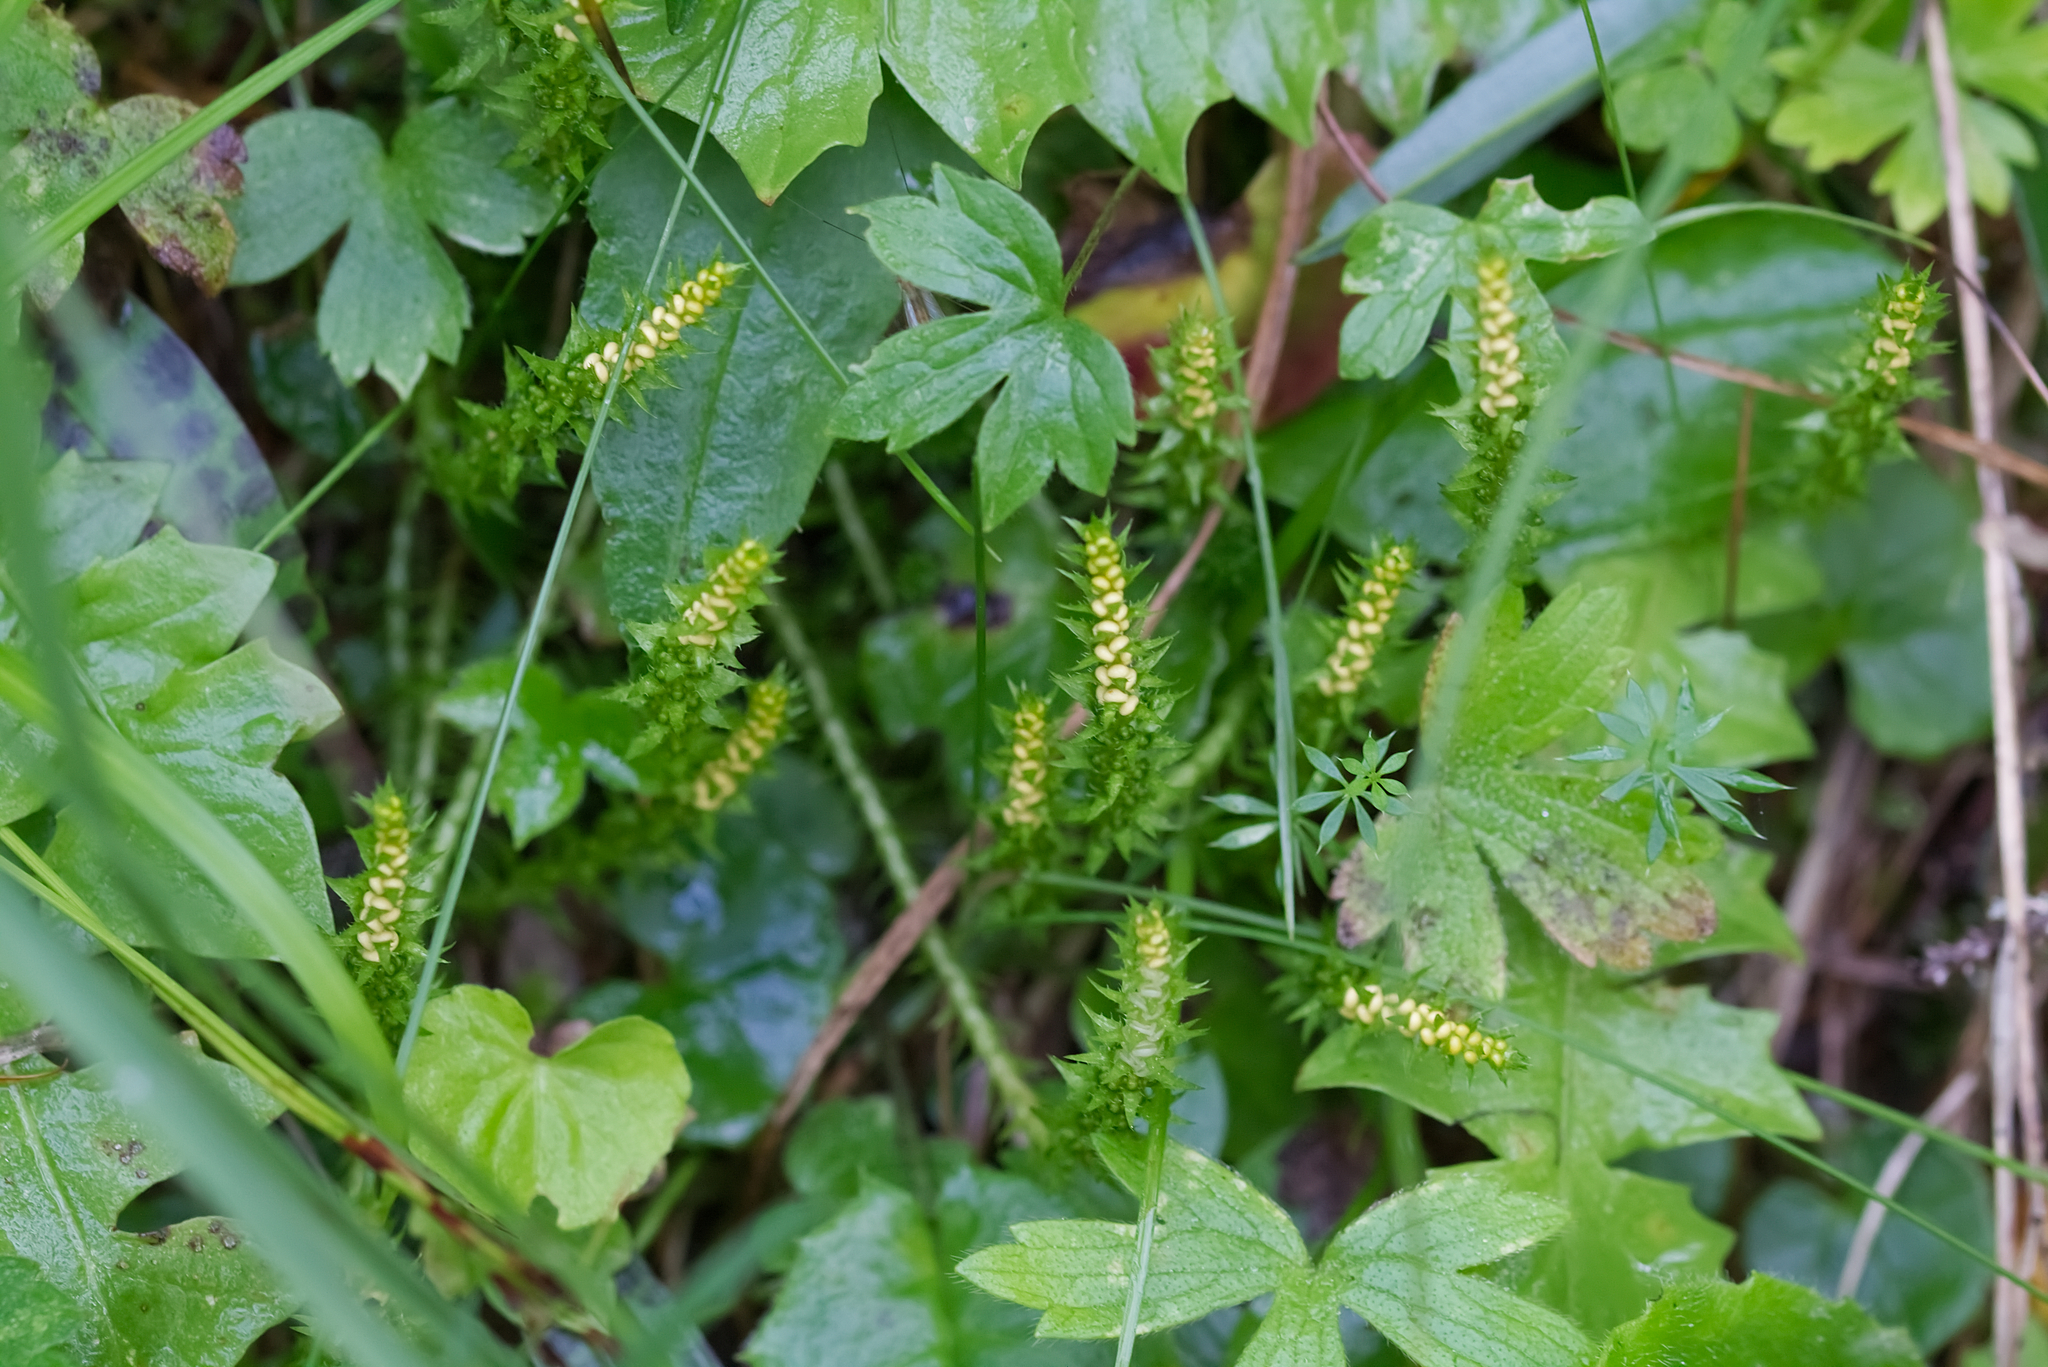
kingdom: Plantae
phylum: Tracheophyta
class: Lycopodiopsida
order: Selaginellales
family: Selaginellaceae
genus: Selaginella
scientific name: Selaginella selaginoides
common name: Prickly mountain-moss
